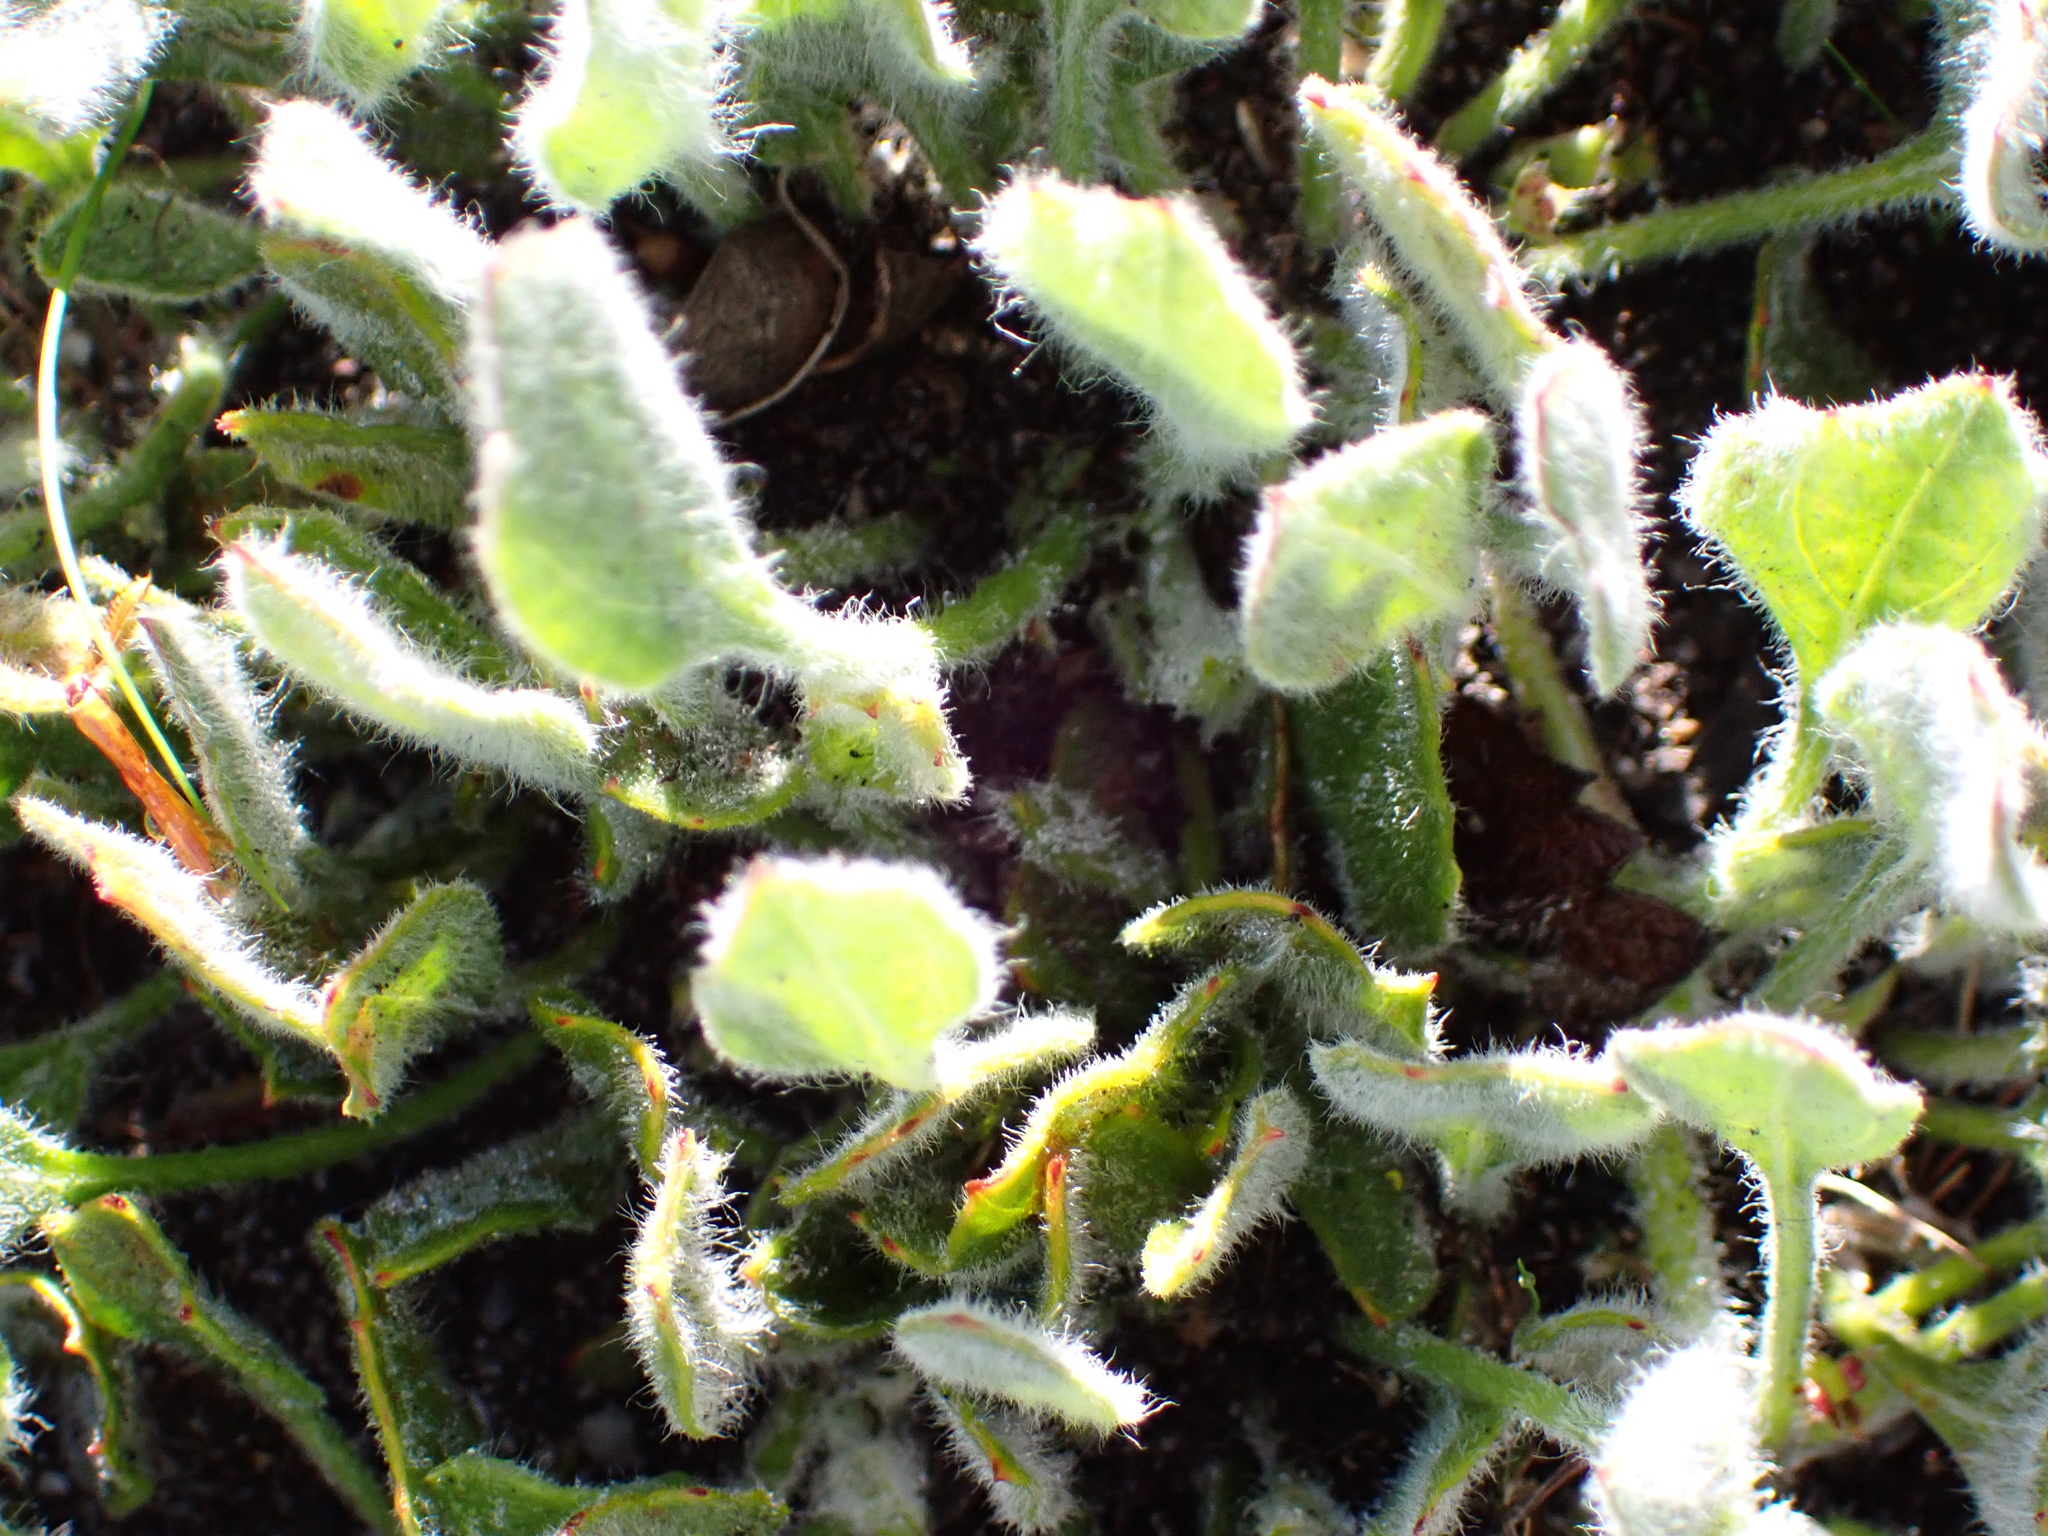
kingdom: Plantae
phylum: Tracheophyta
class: Magnoliopsida
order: Apiales
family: Apiaceae
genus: Centella
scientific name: Centella montana
